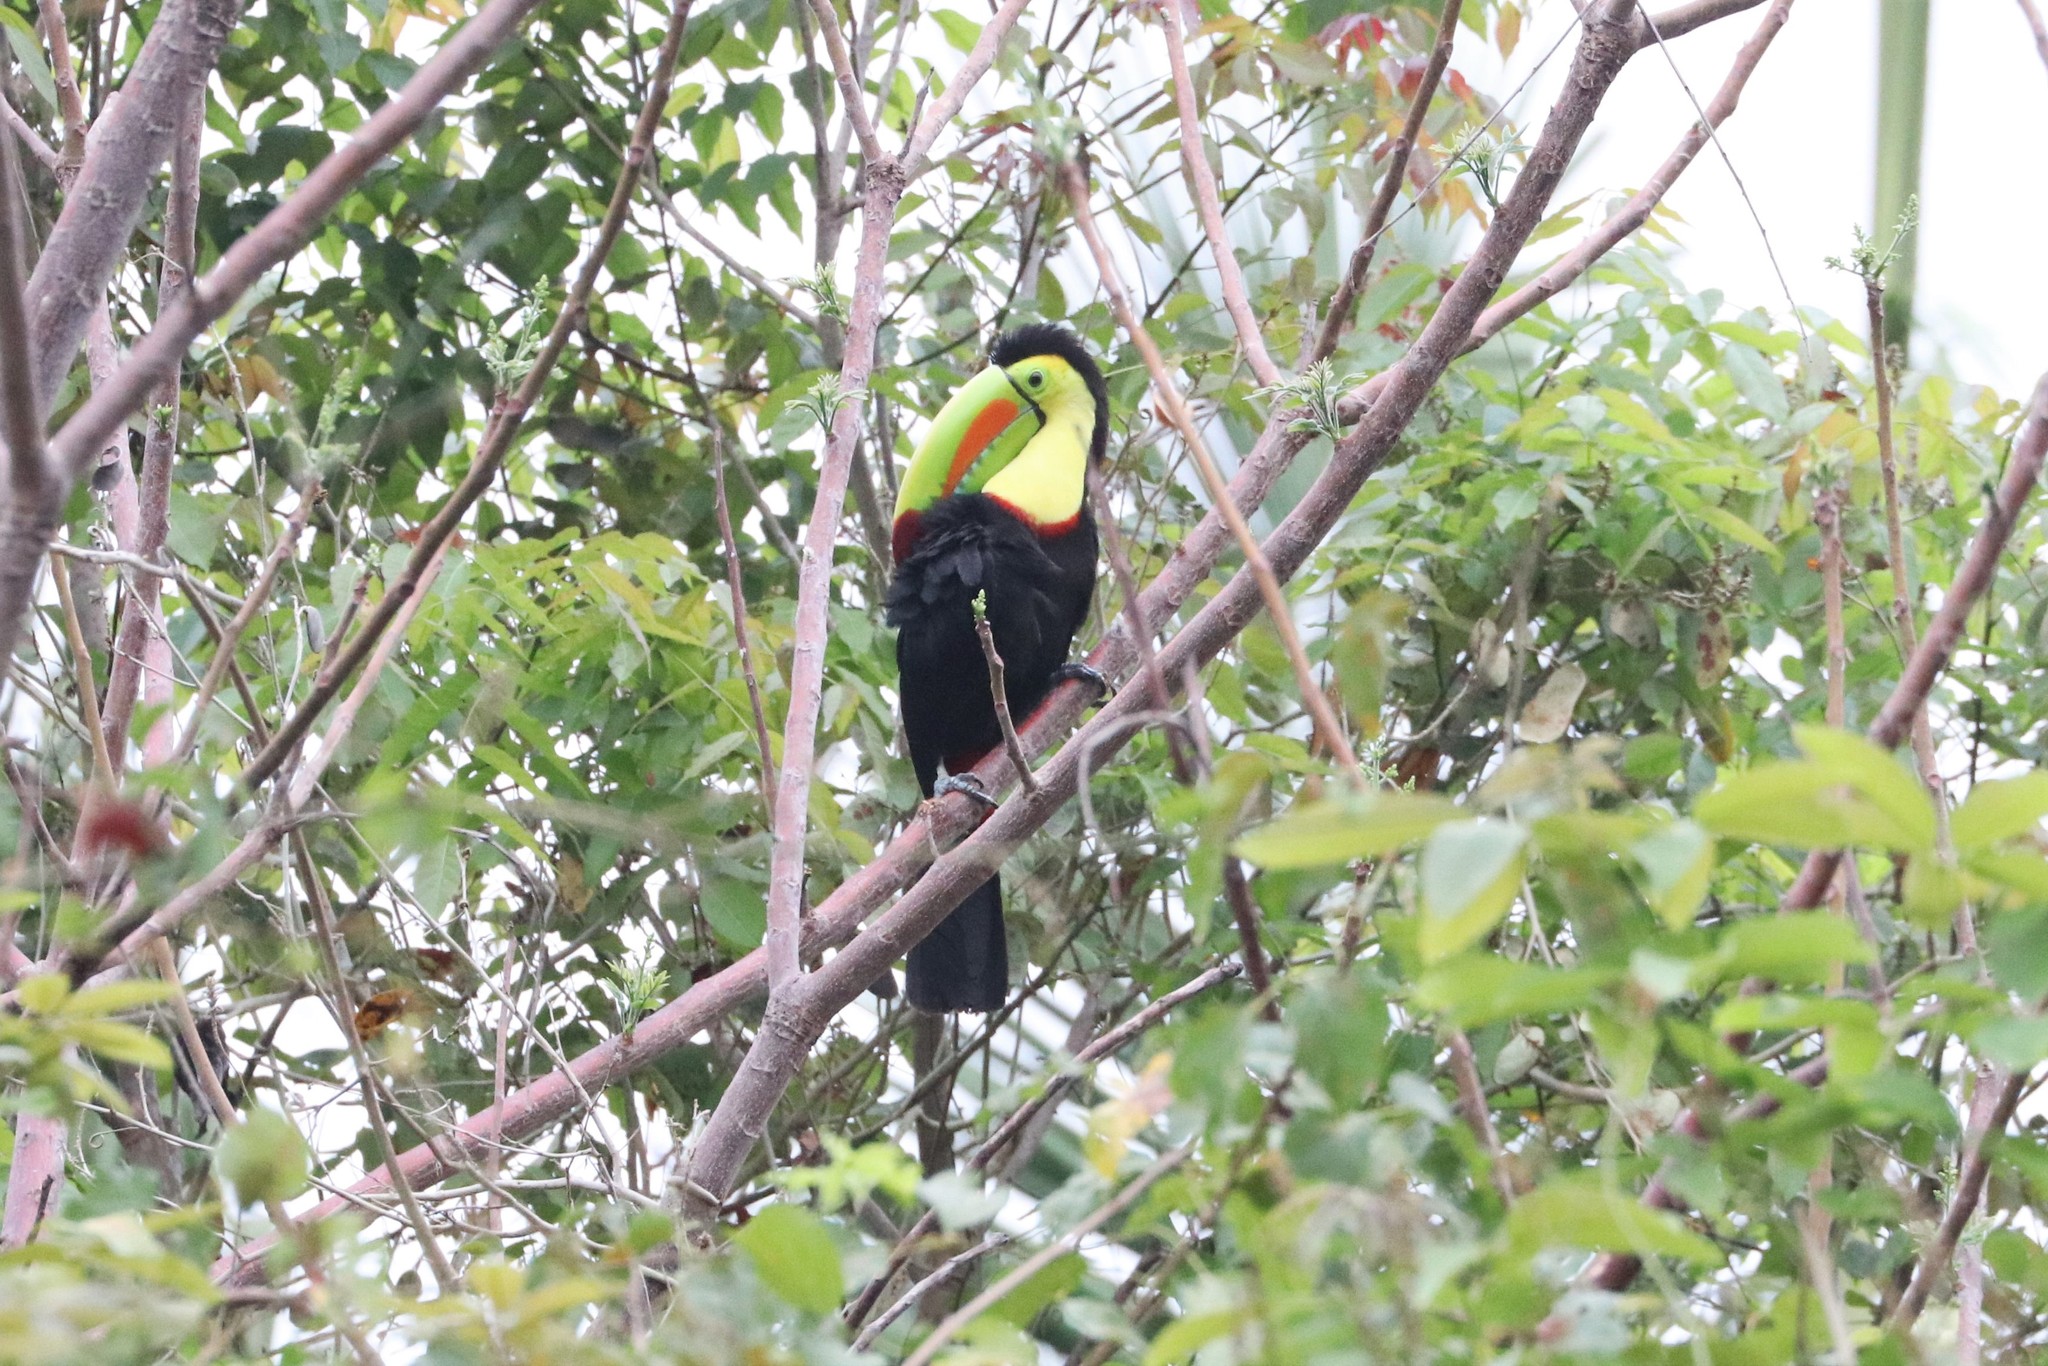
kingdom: Animalia
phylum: Chordata
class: Aves
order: Piciformes
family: Ramphastidae
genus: Ramphastos
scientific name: Ramphastos sulfuratus
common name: Keel-billed toucan
